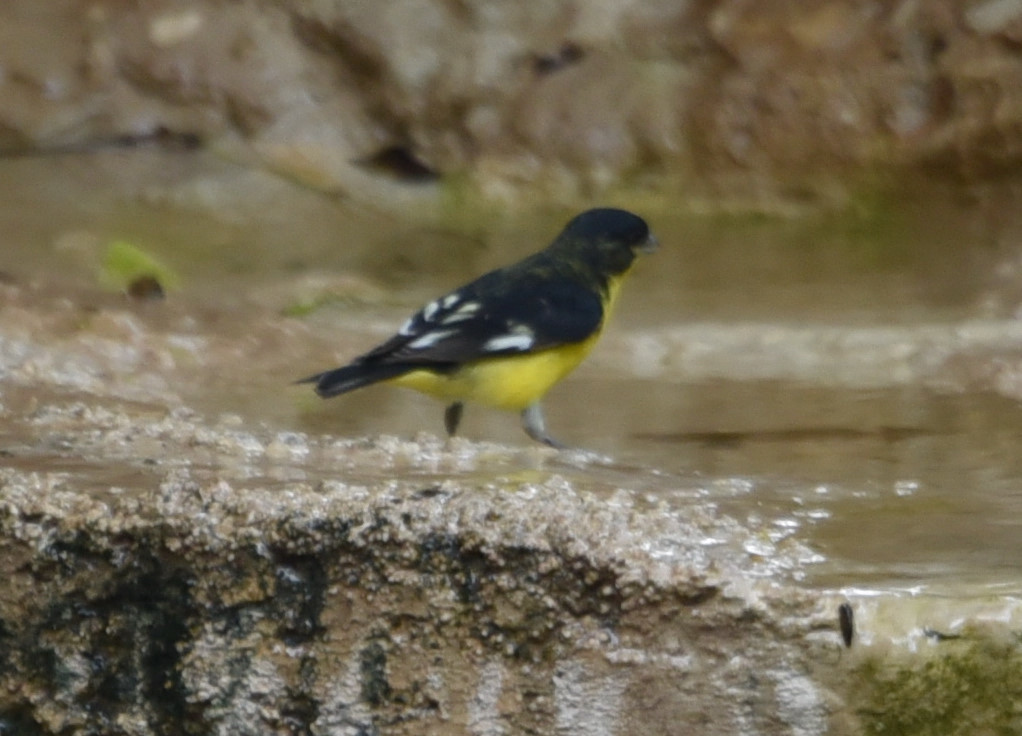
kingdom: Animalia
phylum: Chordata
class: Aves
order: Passeriformes
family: Fringillidae
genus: Spinus
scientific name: Spinus psaltria
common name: Lesser goldfinch
